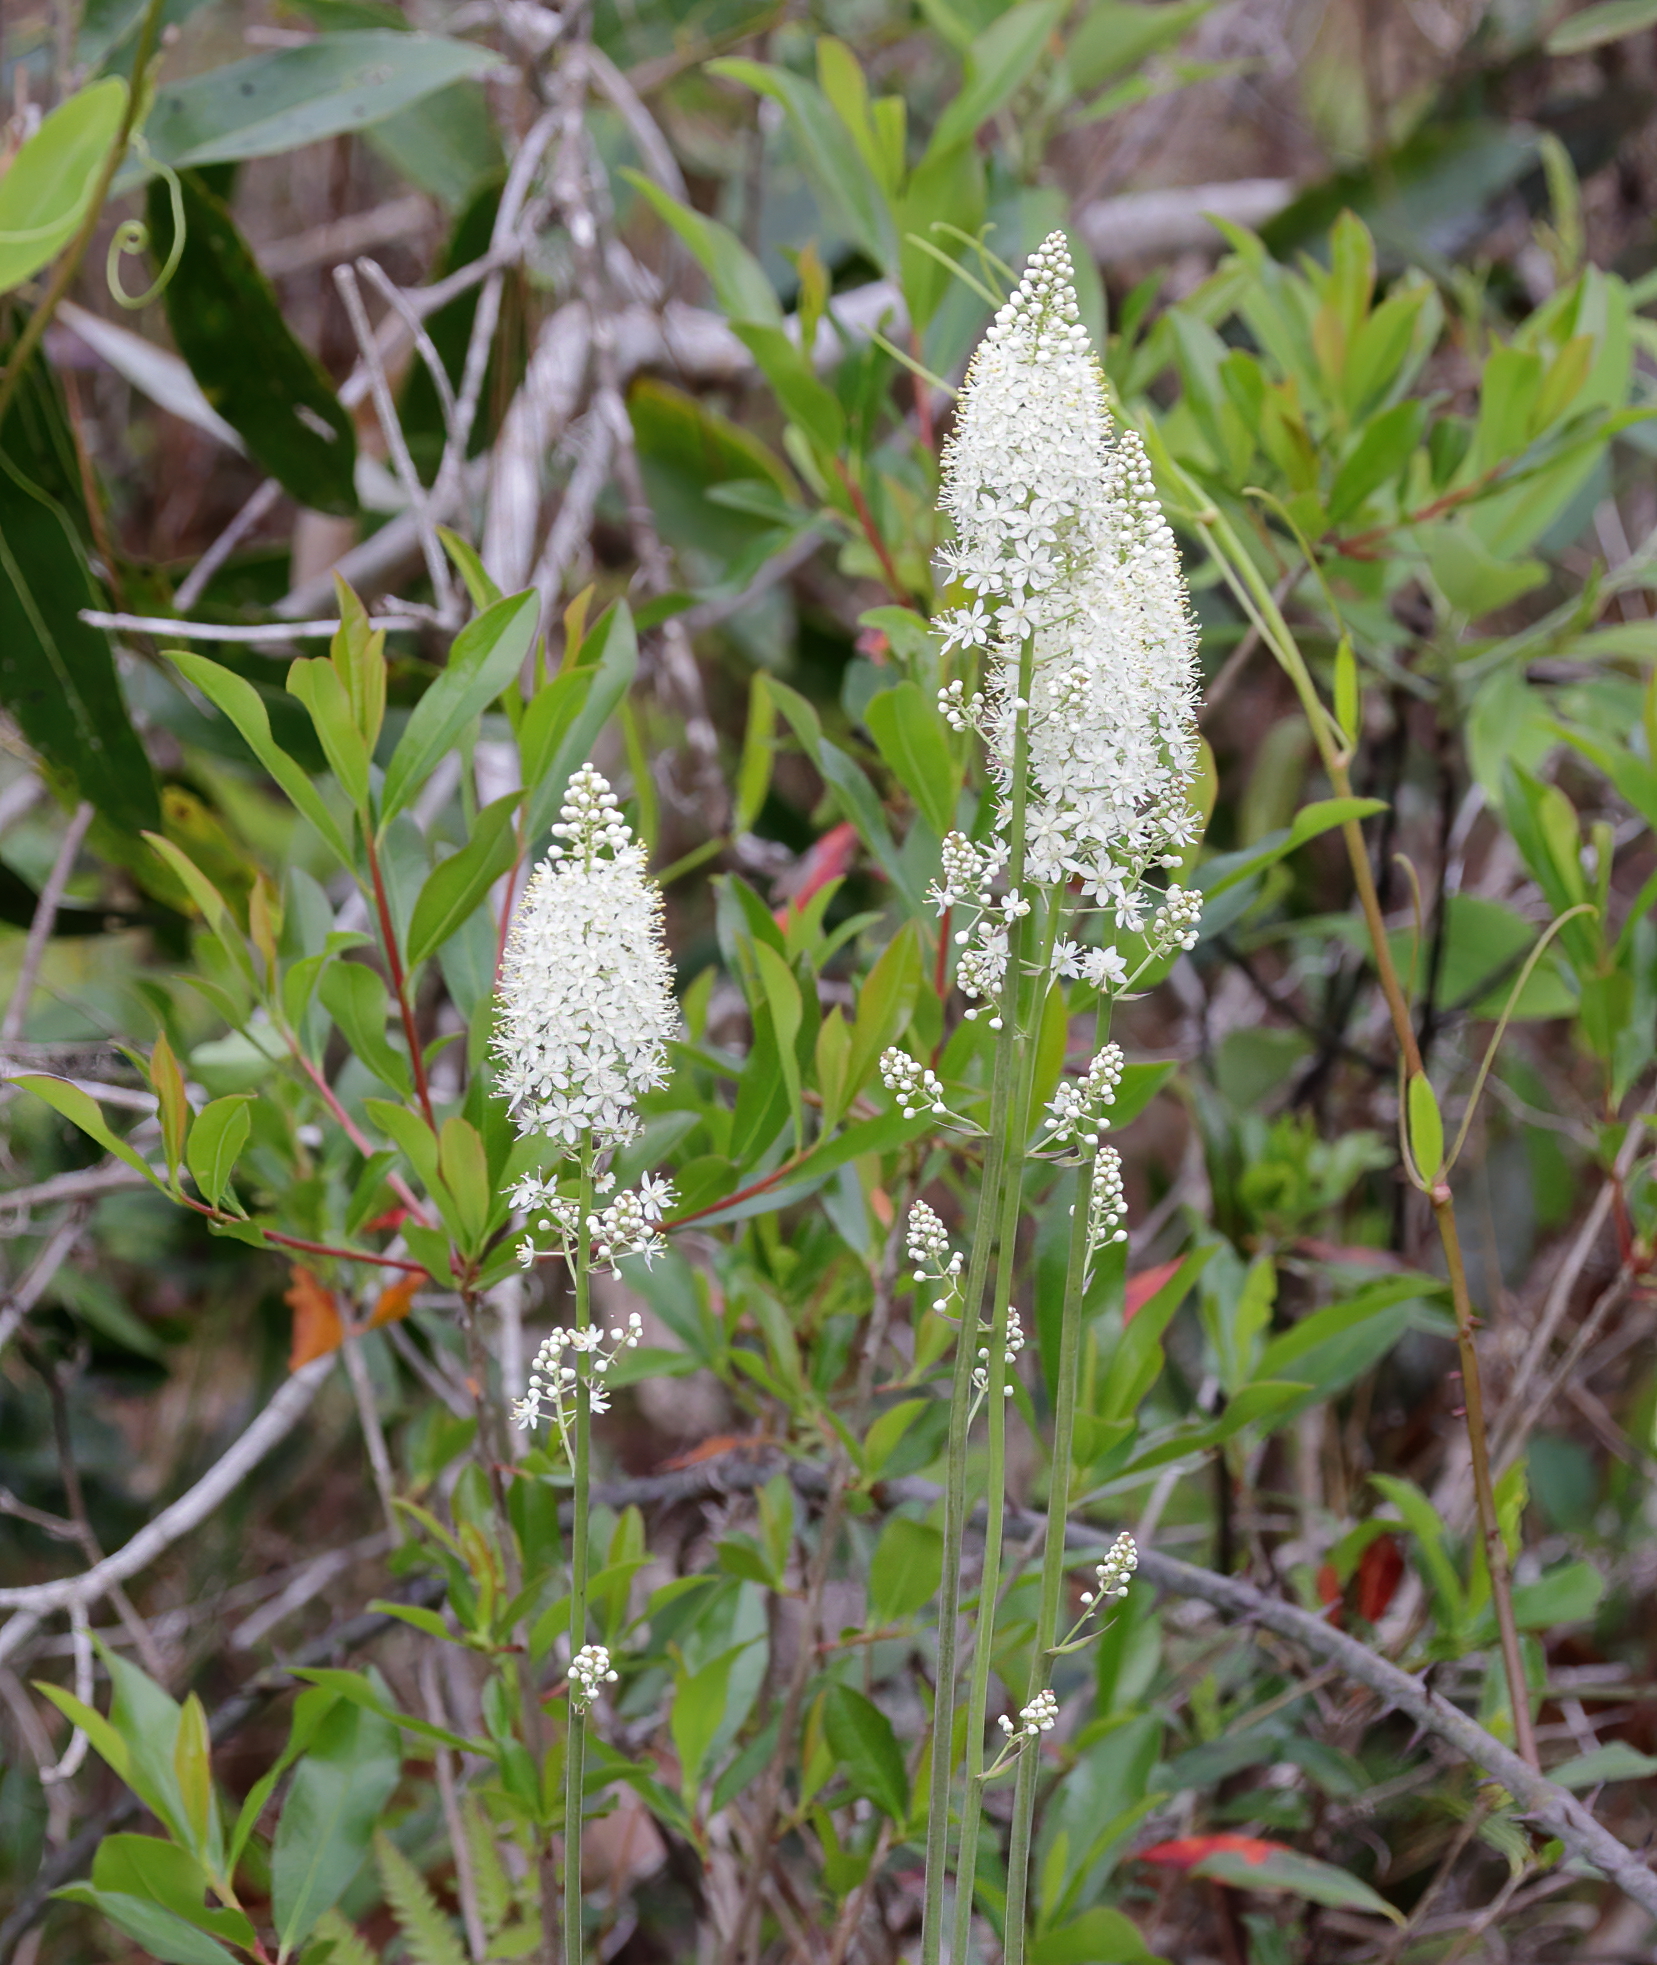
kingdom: Plantae
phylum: Tracheophyta
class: Liliopsida
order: Liliales
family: Melanthiaceae
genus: Stenanthium
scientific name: Stenanthium texanum
